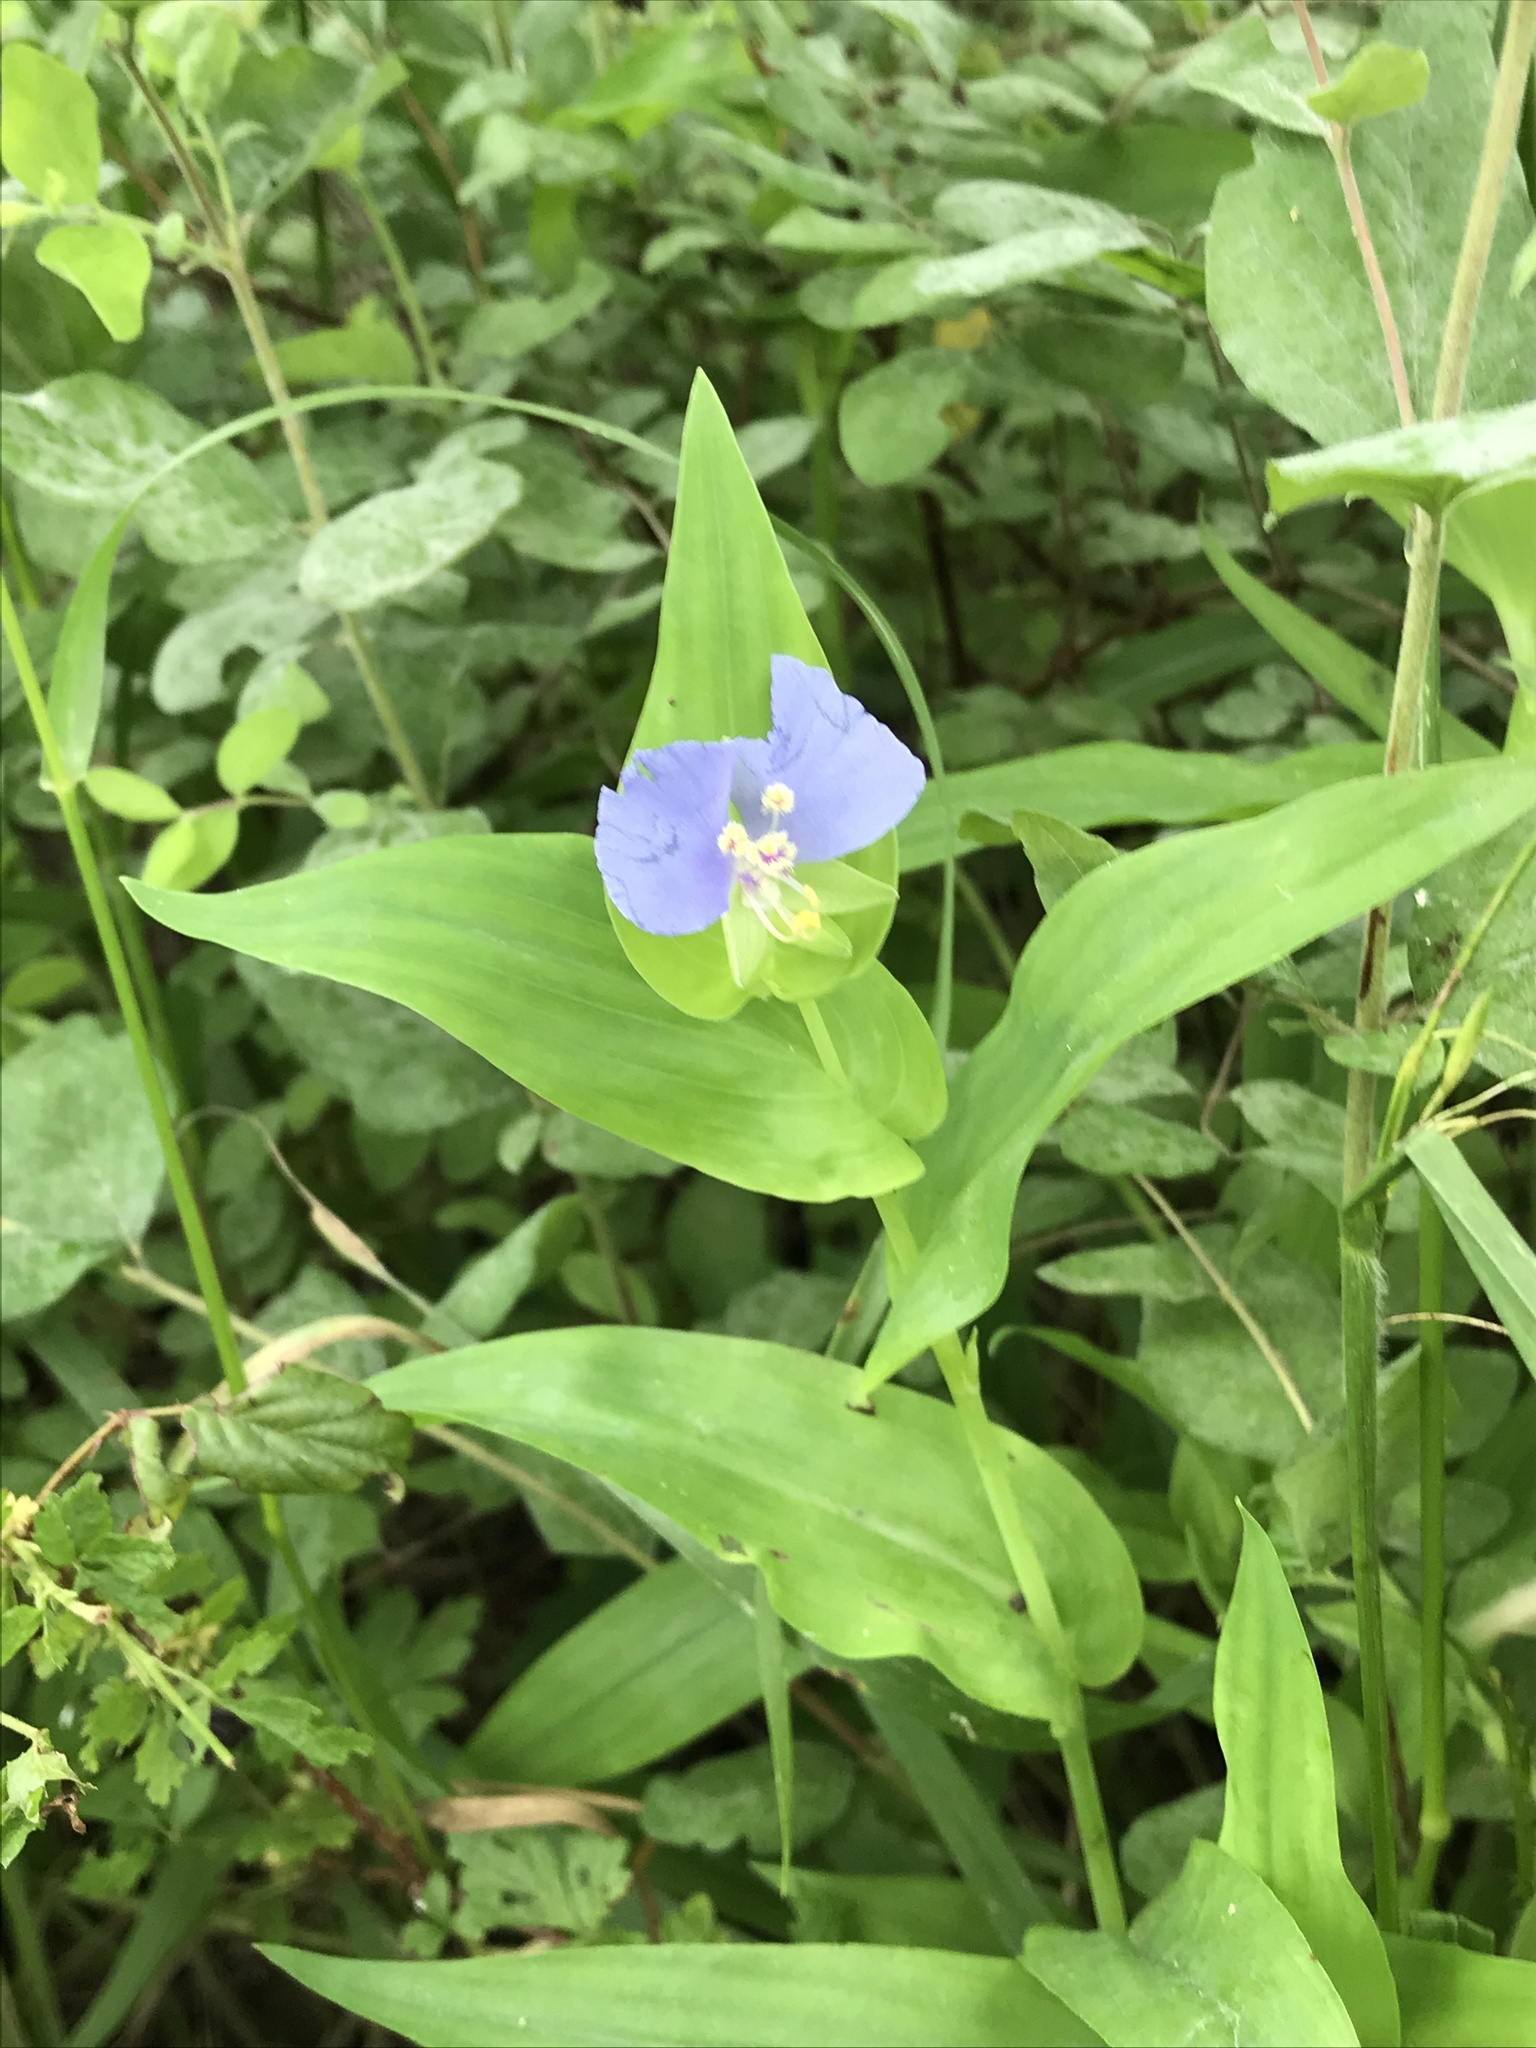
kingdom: Plantae
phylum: Tracheophyta
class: Liliopsida
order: Commelinales
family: Commelinaceae
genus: Tinantia
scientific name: Tinantia anomala
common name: False dayflower
